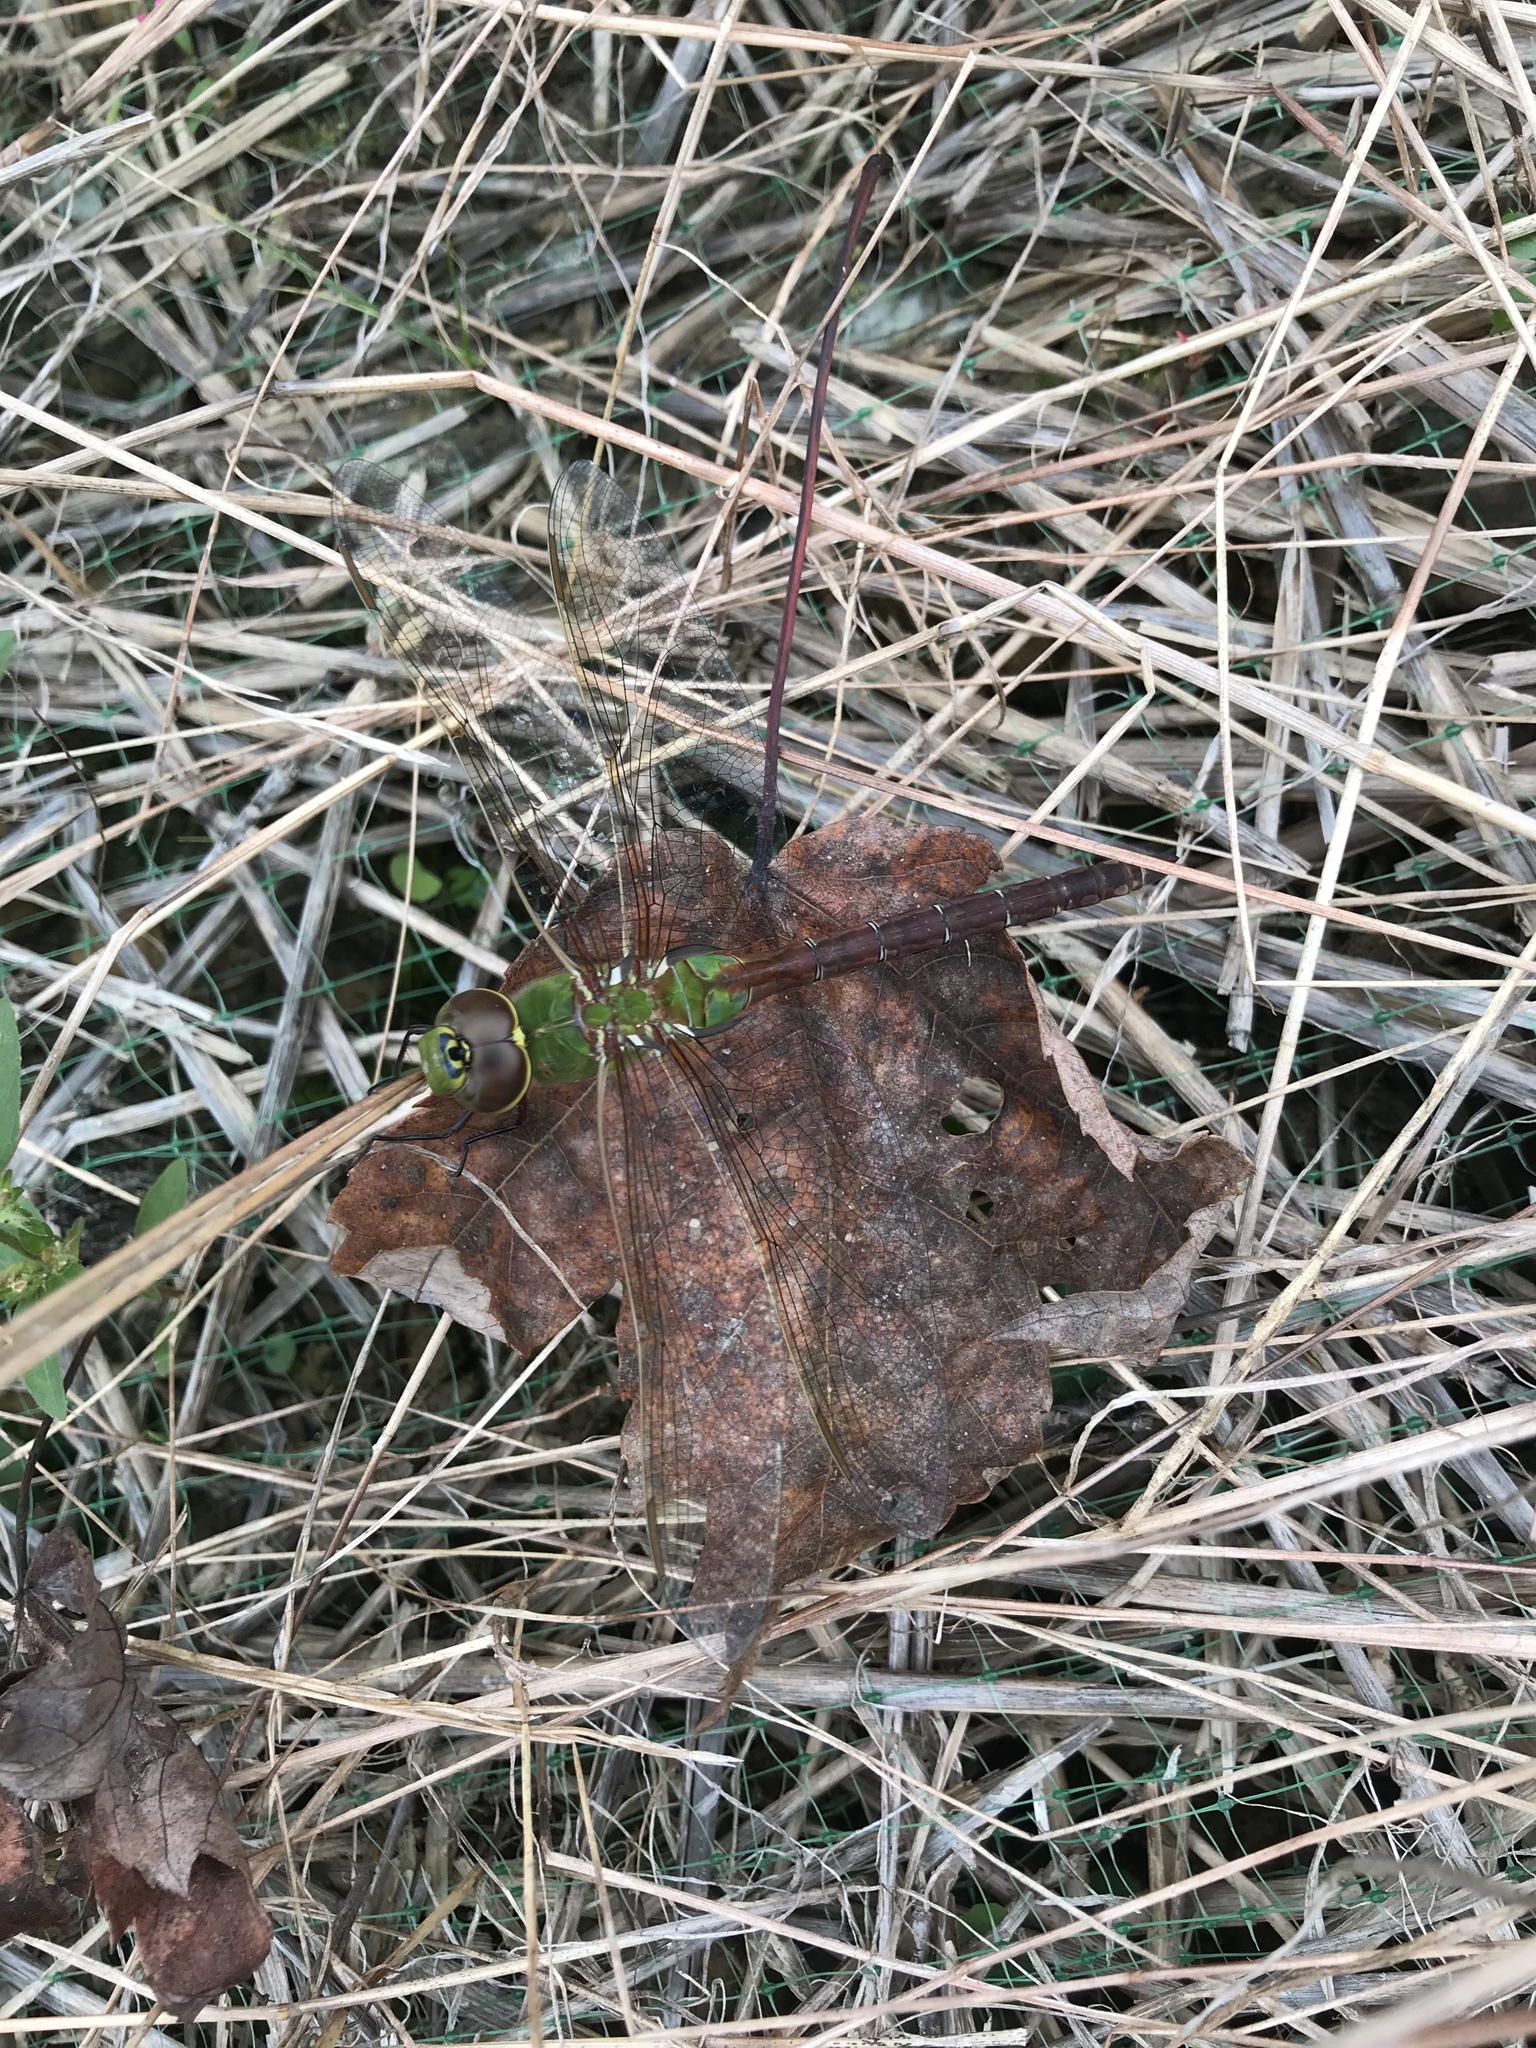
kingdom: Animalia
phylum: Arthropoda
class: Insecta
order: Odonata
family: Aeshnidae
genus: Anax
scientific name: Anax junius
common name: Common green darner
